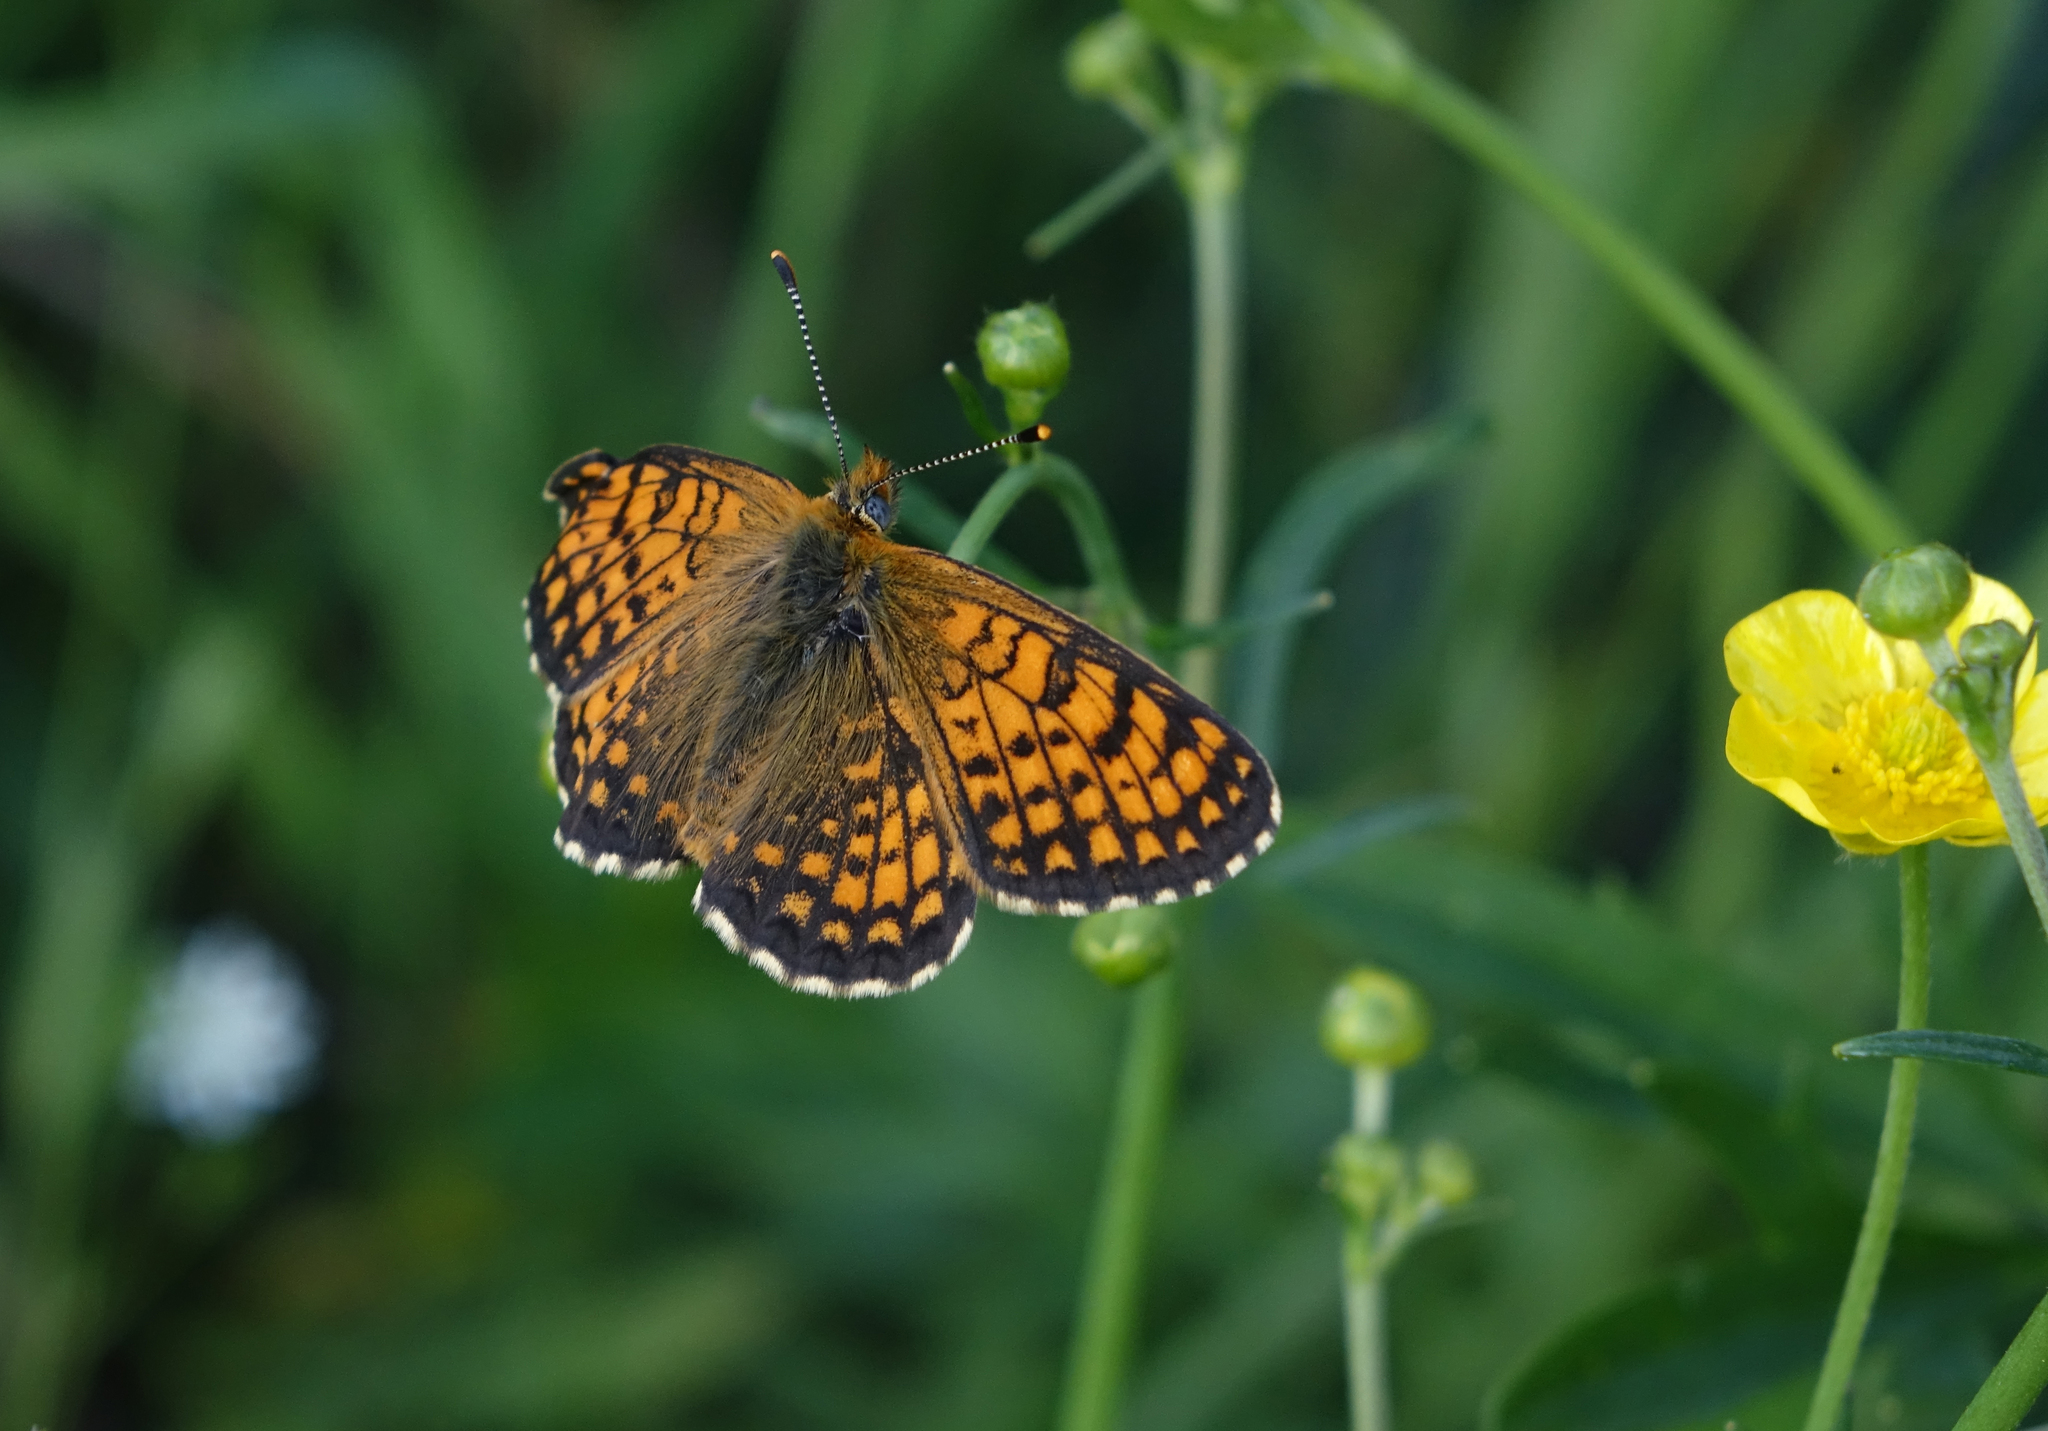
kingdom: Animalia
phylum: Arthropoda
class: Insecta
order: Lepidoptera
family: Nymphalidae
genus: Melitaea
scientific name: Melitaea arcesia
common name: Blackvein fritillary
